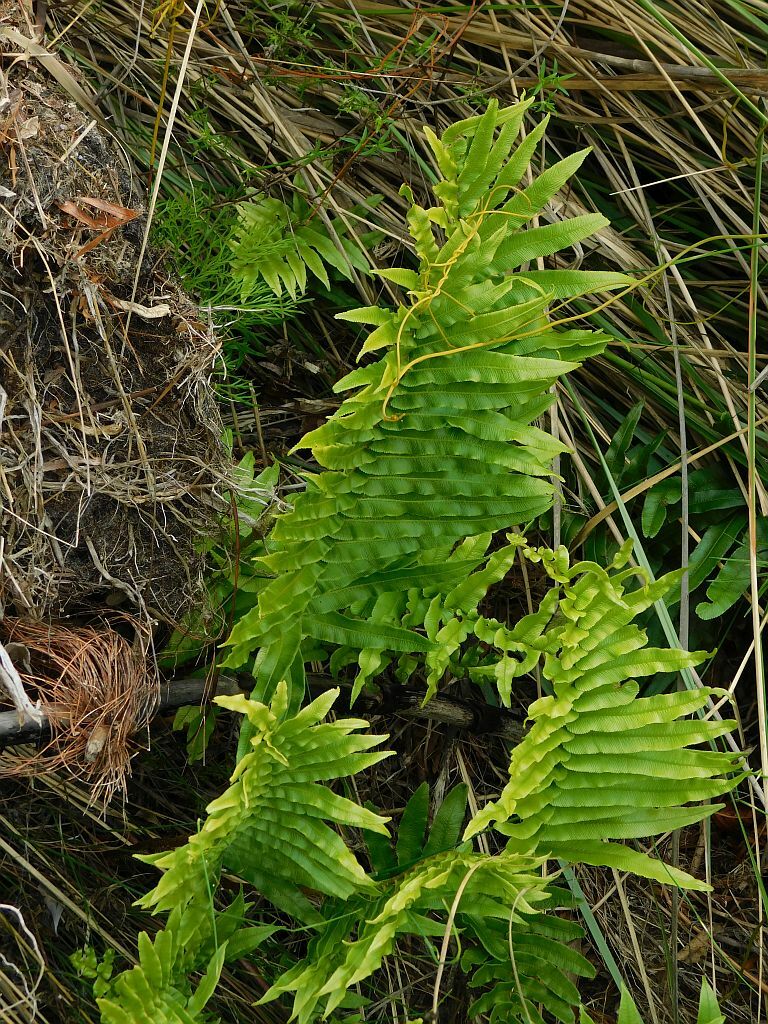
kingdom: Plantae
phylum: Tracheophyta
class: Polypodiopsida
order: Polypodiales
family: Blechnaceae
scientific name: Blechnaceae
